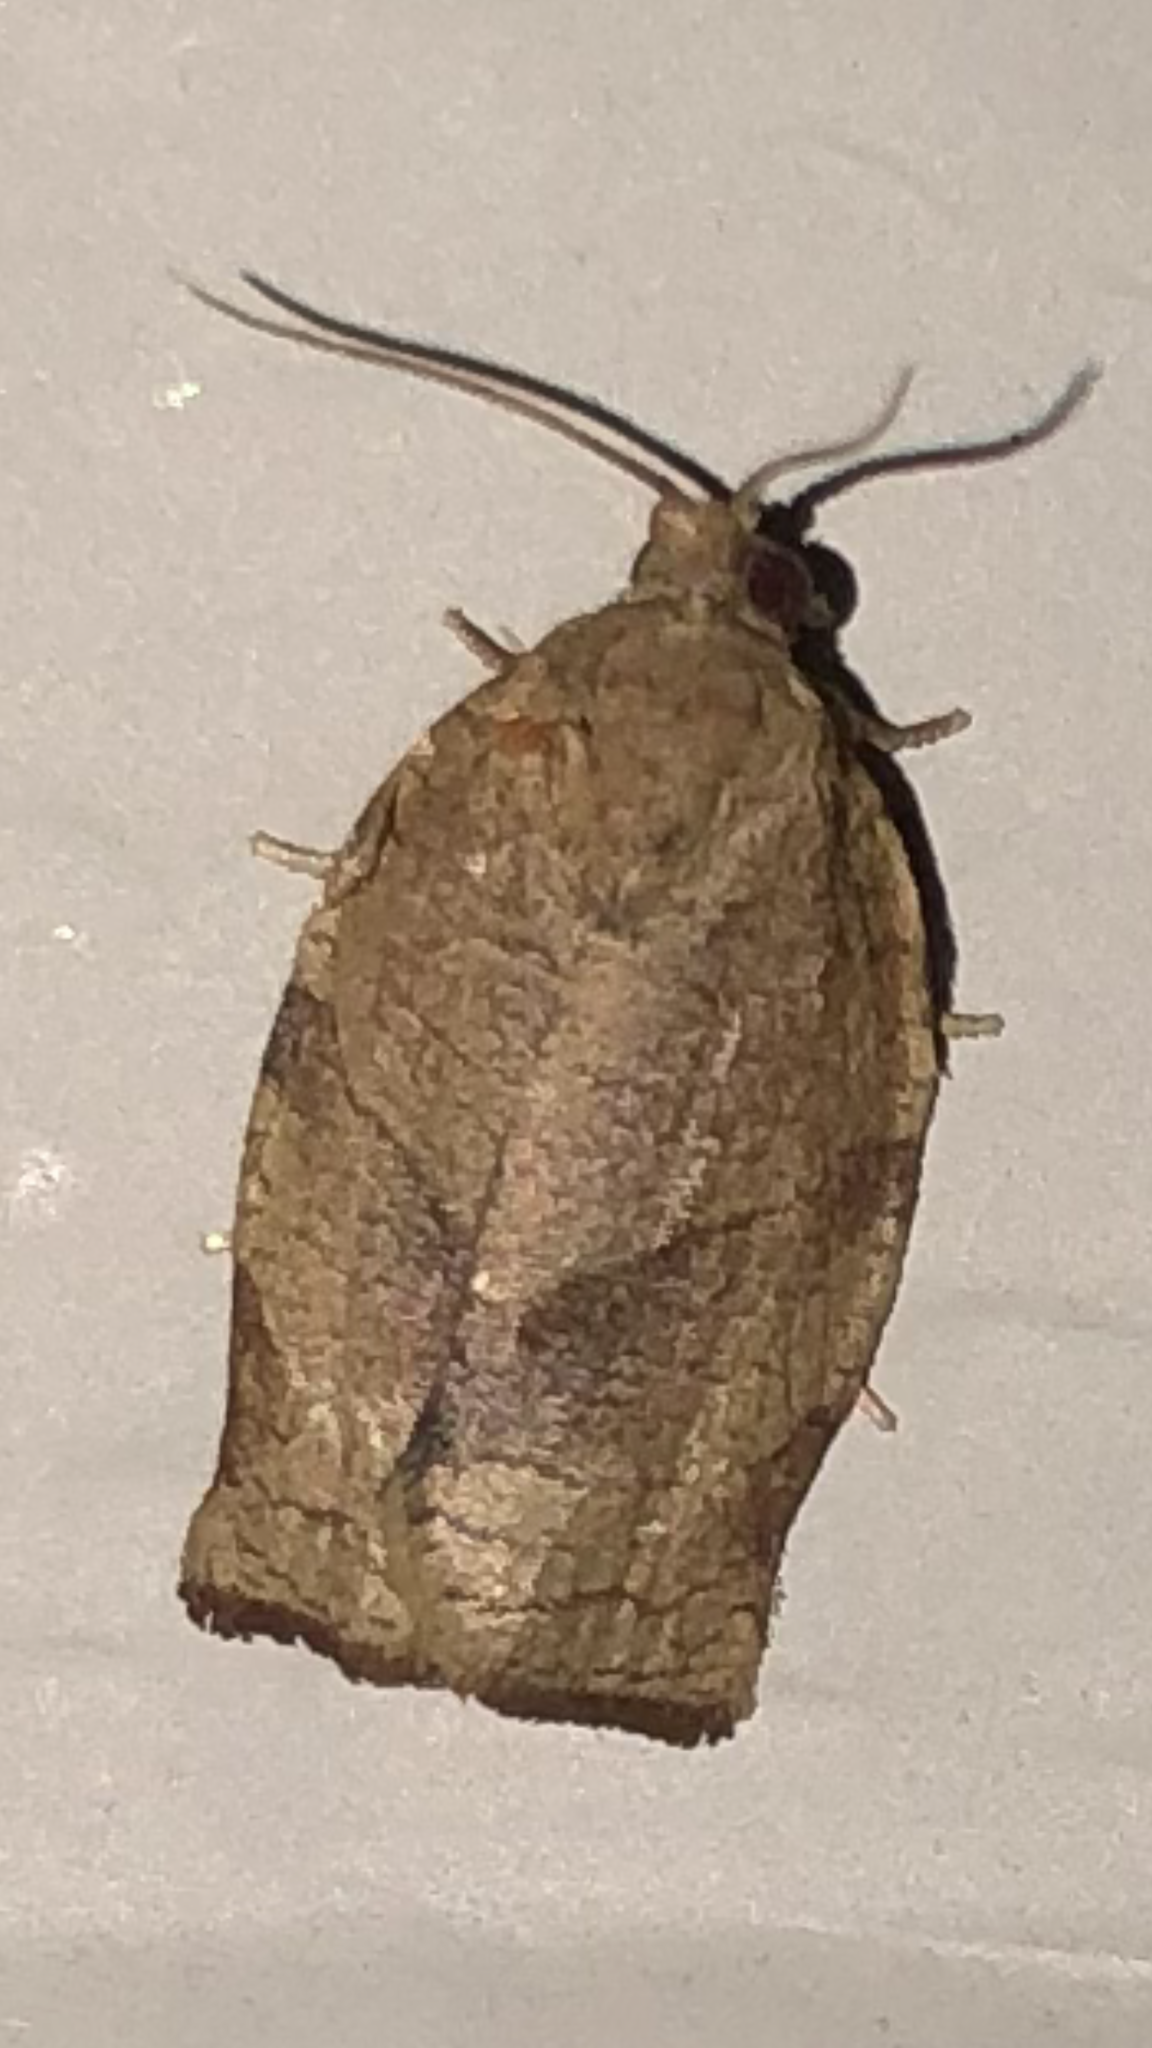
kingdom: Animalia
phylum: Arthropoda
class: Insecta
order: Lepidoptera
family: Tortricidae
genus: Choristoneura
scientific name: Choristoneura rosaceana
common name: Oblique-banded leafroller moth
